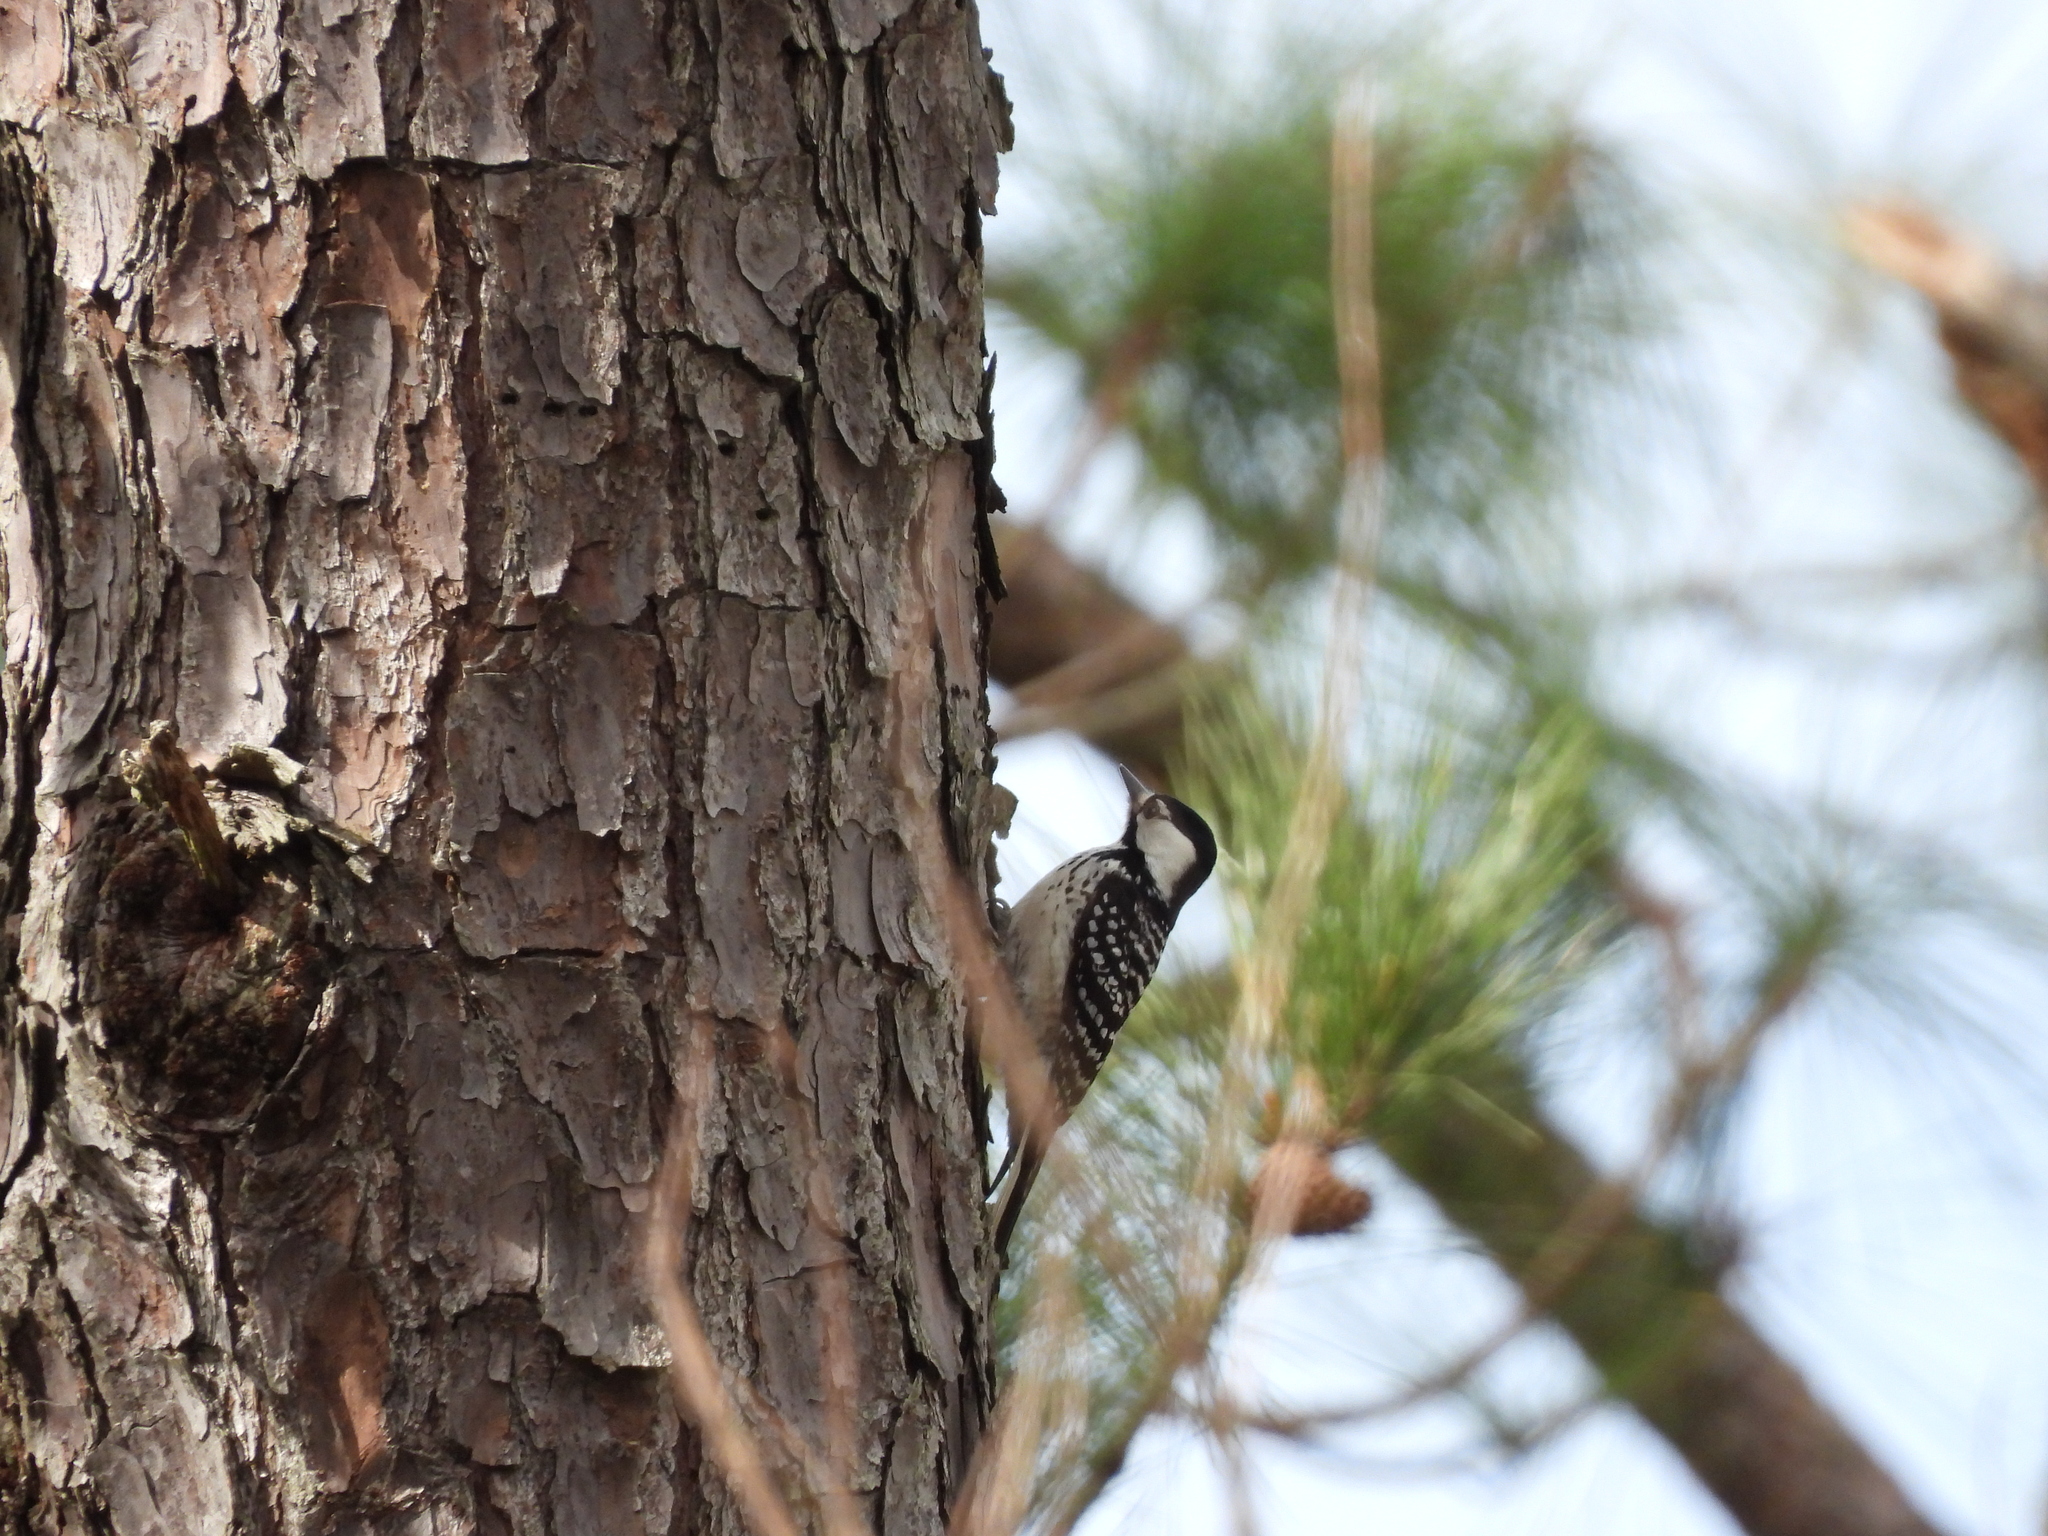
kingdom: Animalia
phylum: Chordata
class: Aves
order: Piciformes
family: Picidae
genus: Leuconotopicus
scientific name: Leuconotopicus borealis
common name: Red-cockaded woodpecker
